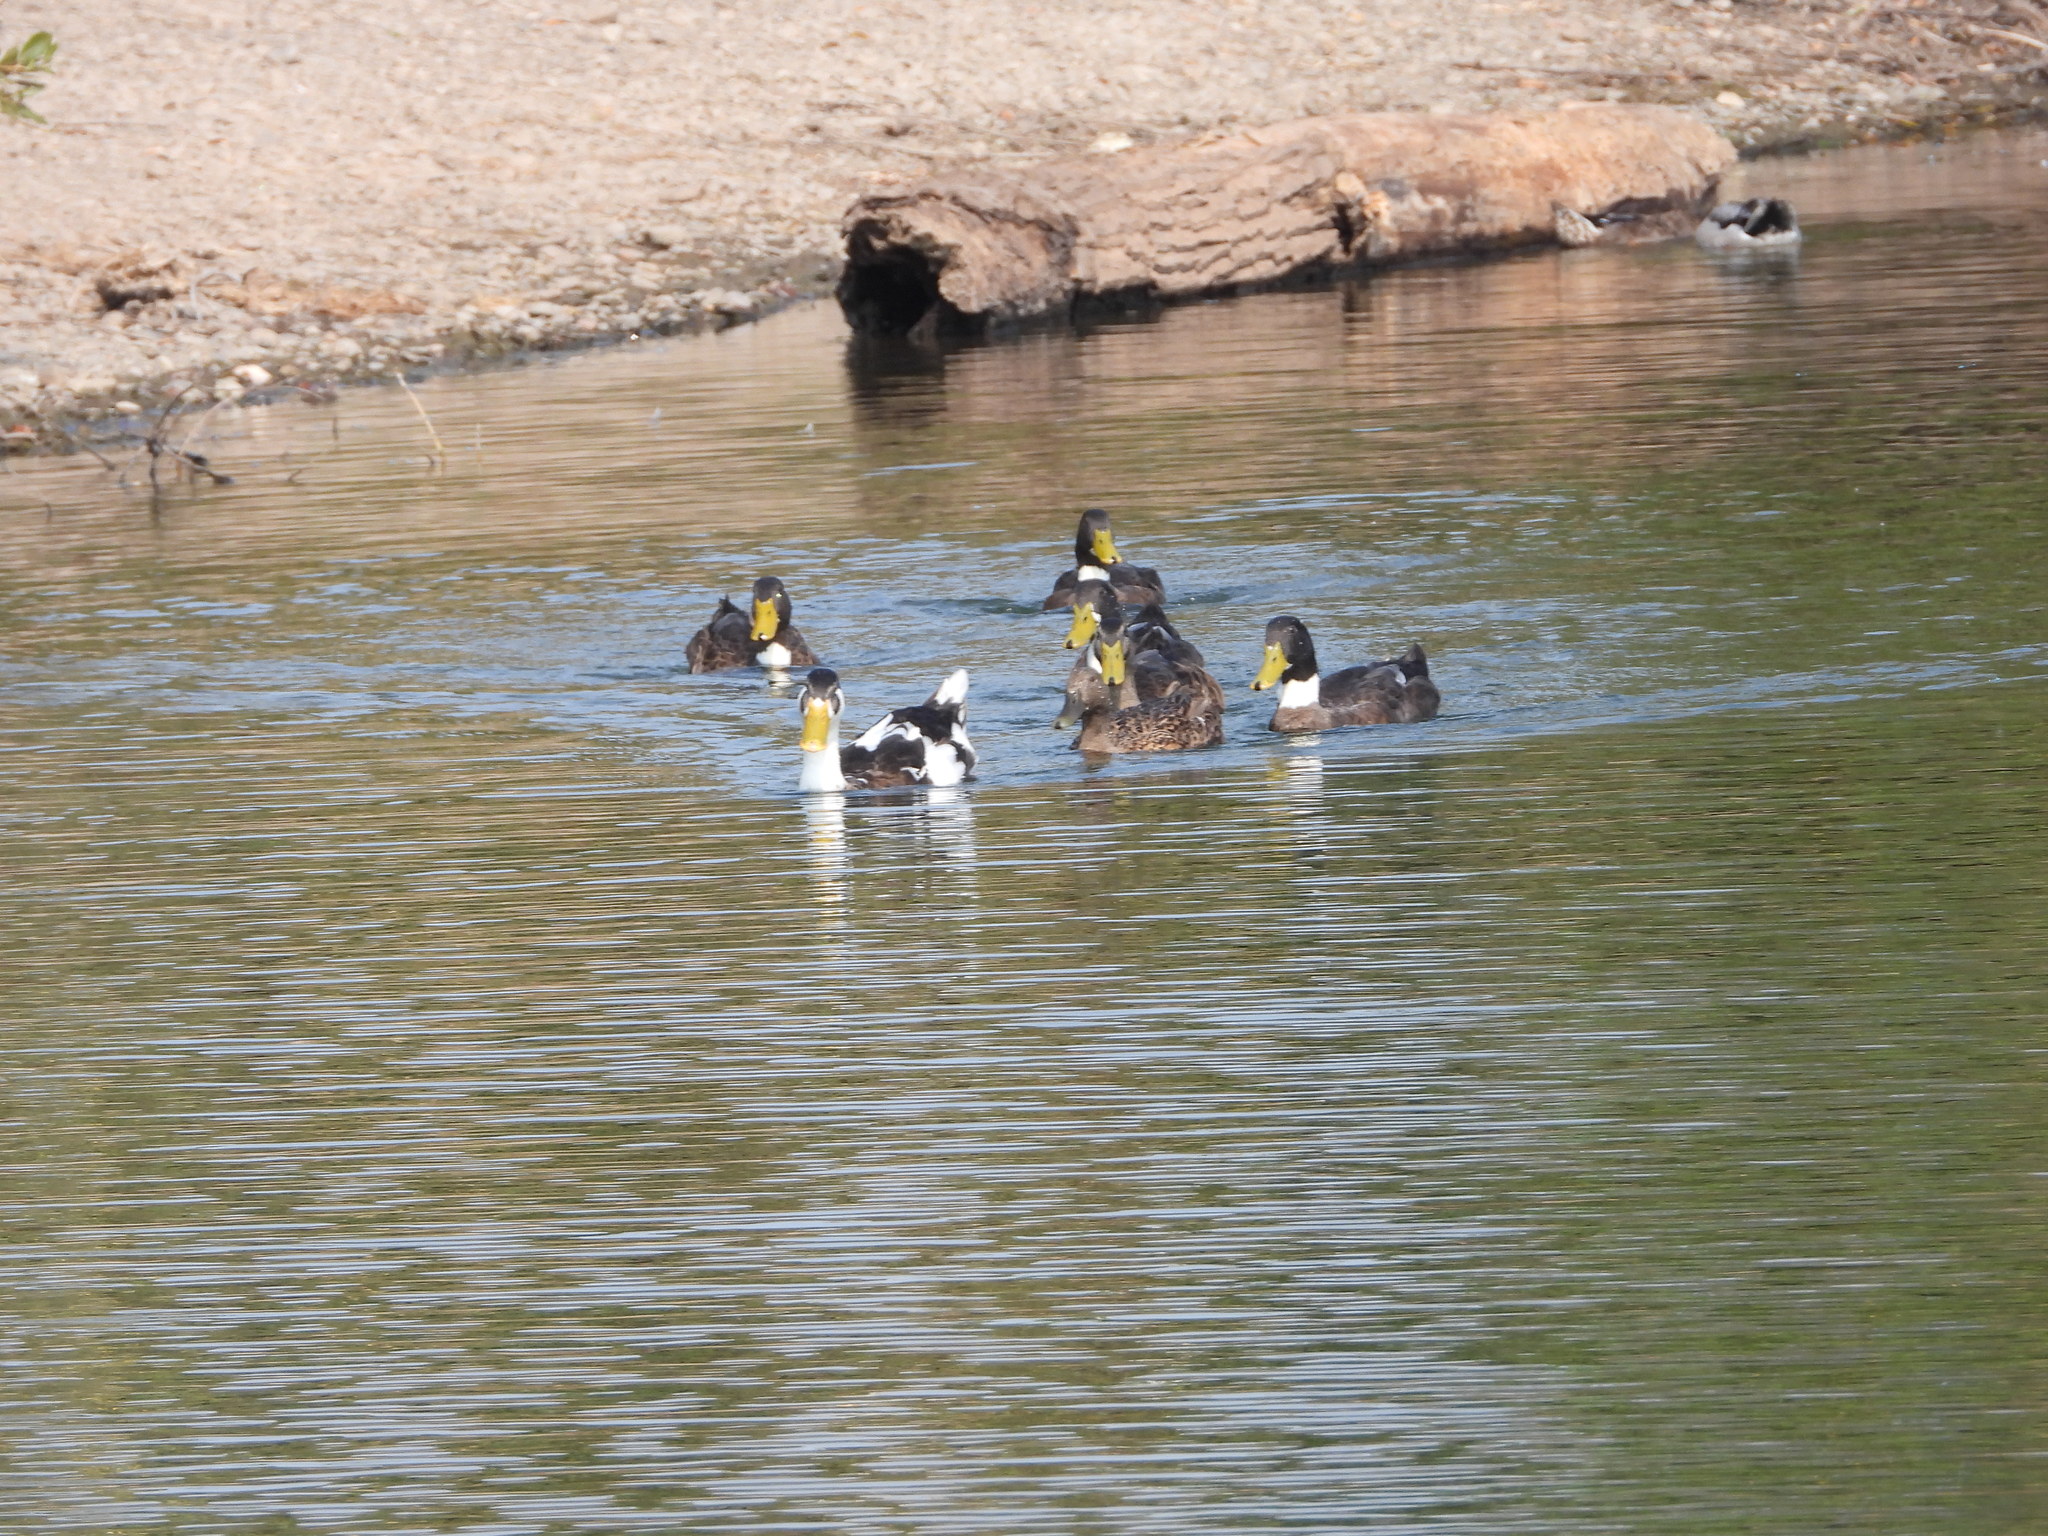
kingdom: Animalia
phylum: Chordata
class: Aves
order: Anseriformes
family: Anatidae
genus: Anas
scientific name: Anas platyrhynchos
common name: Mallard
